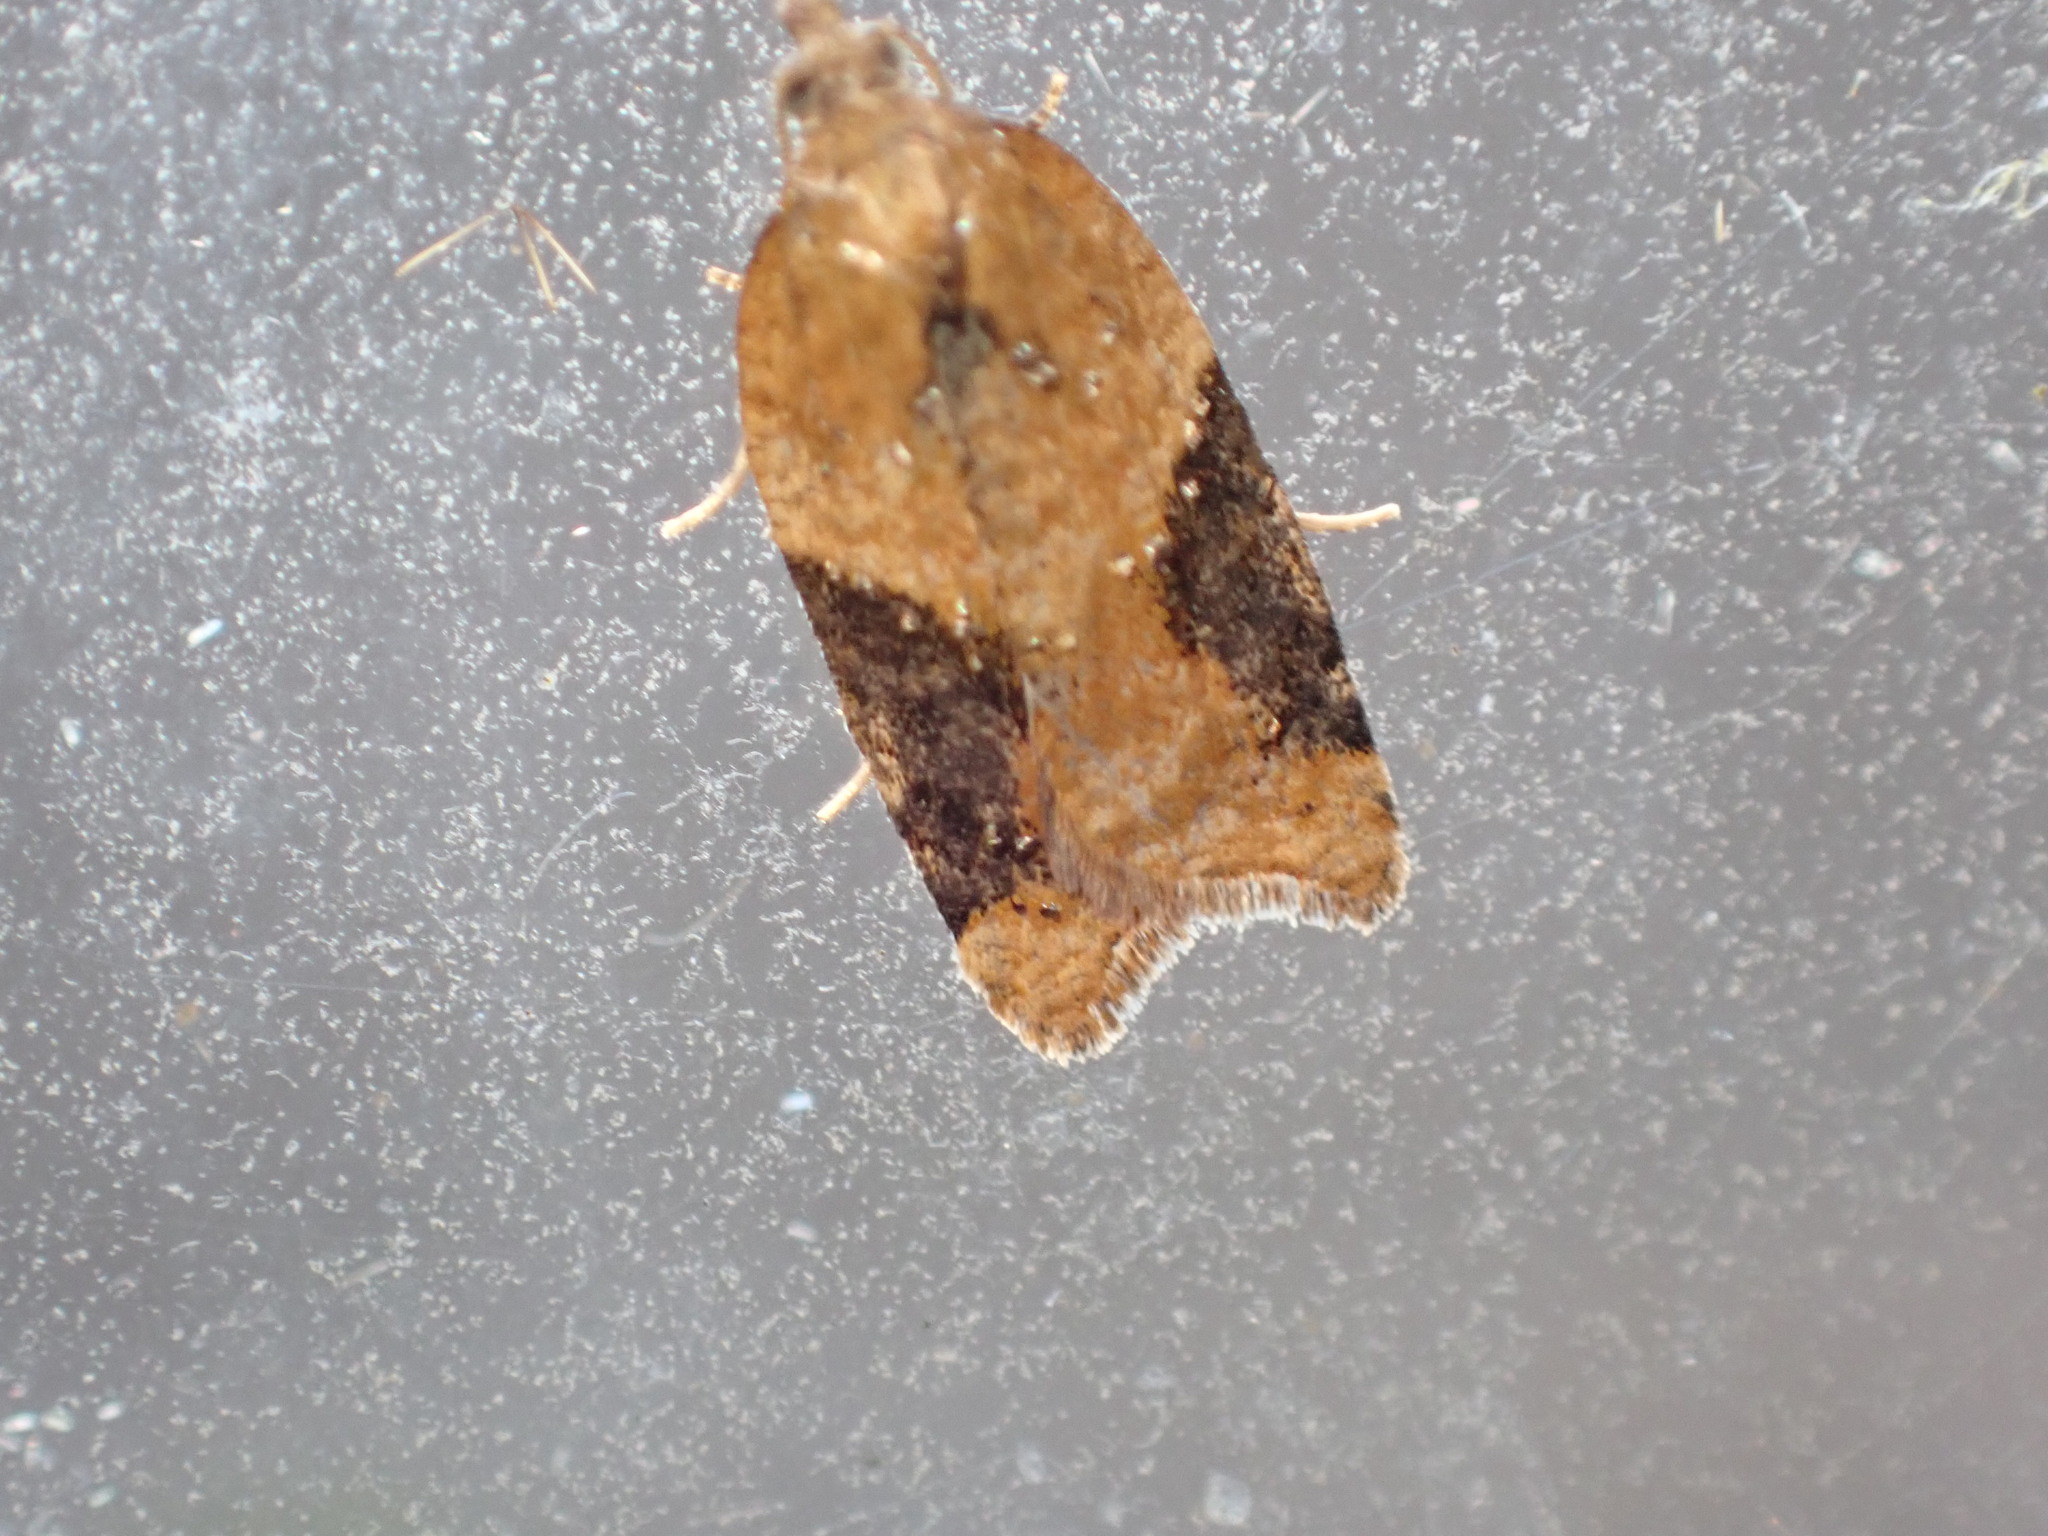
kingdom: Animalia
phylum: Arthropoda
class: Insecta
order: Lepidoptera
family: Tortricidae
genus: Acleris
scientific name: Acleris laterana
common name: Dark-triangle button
